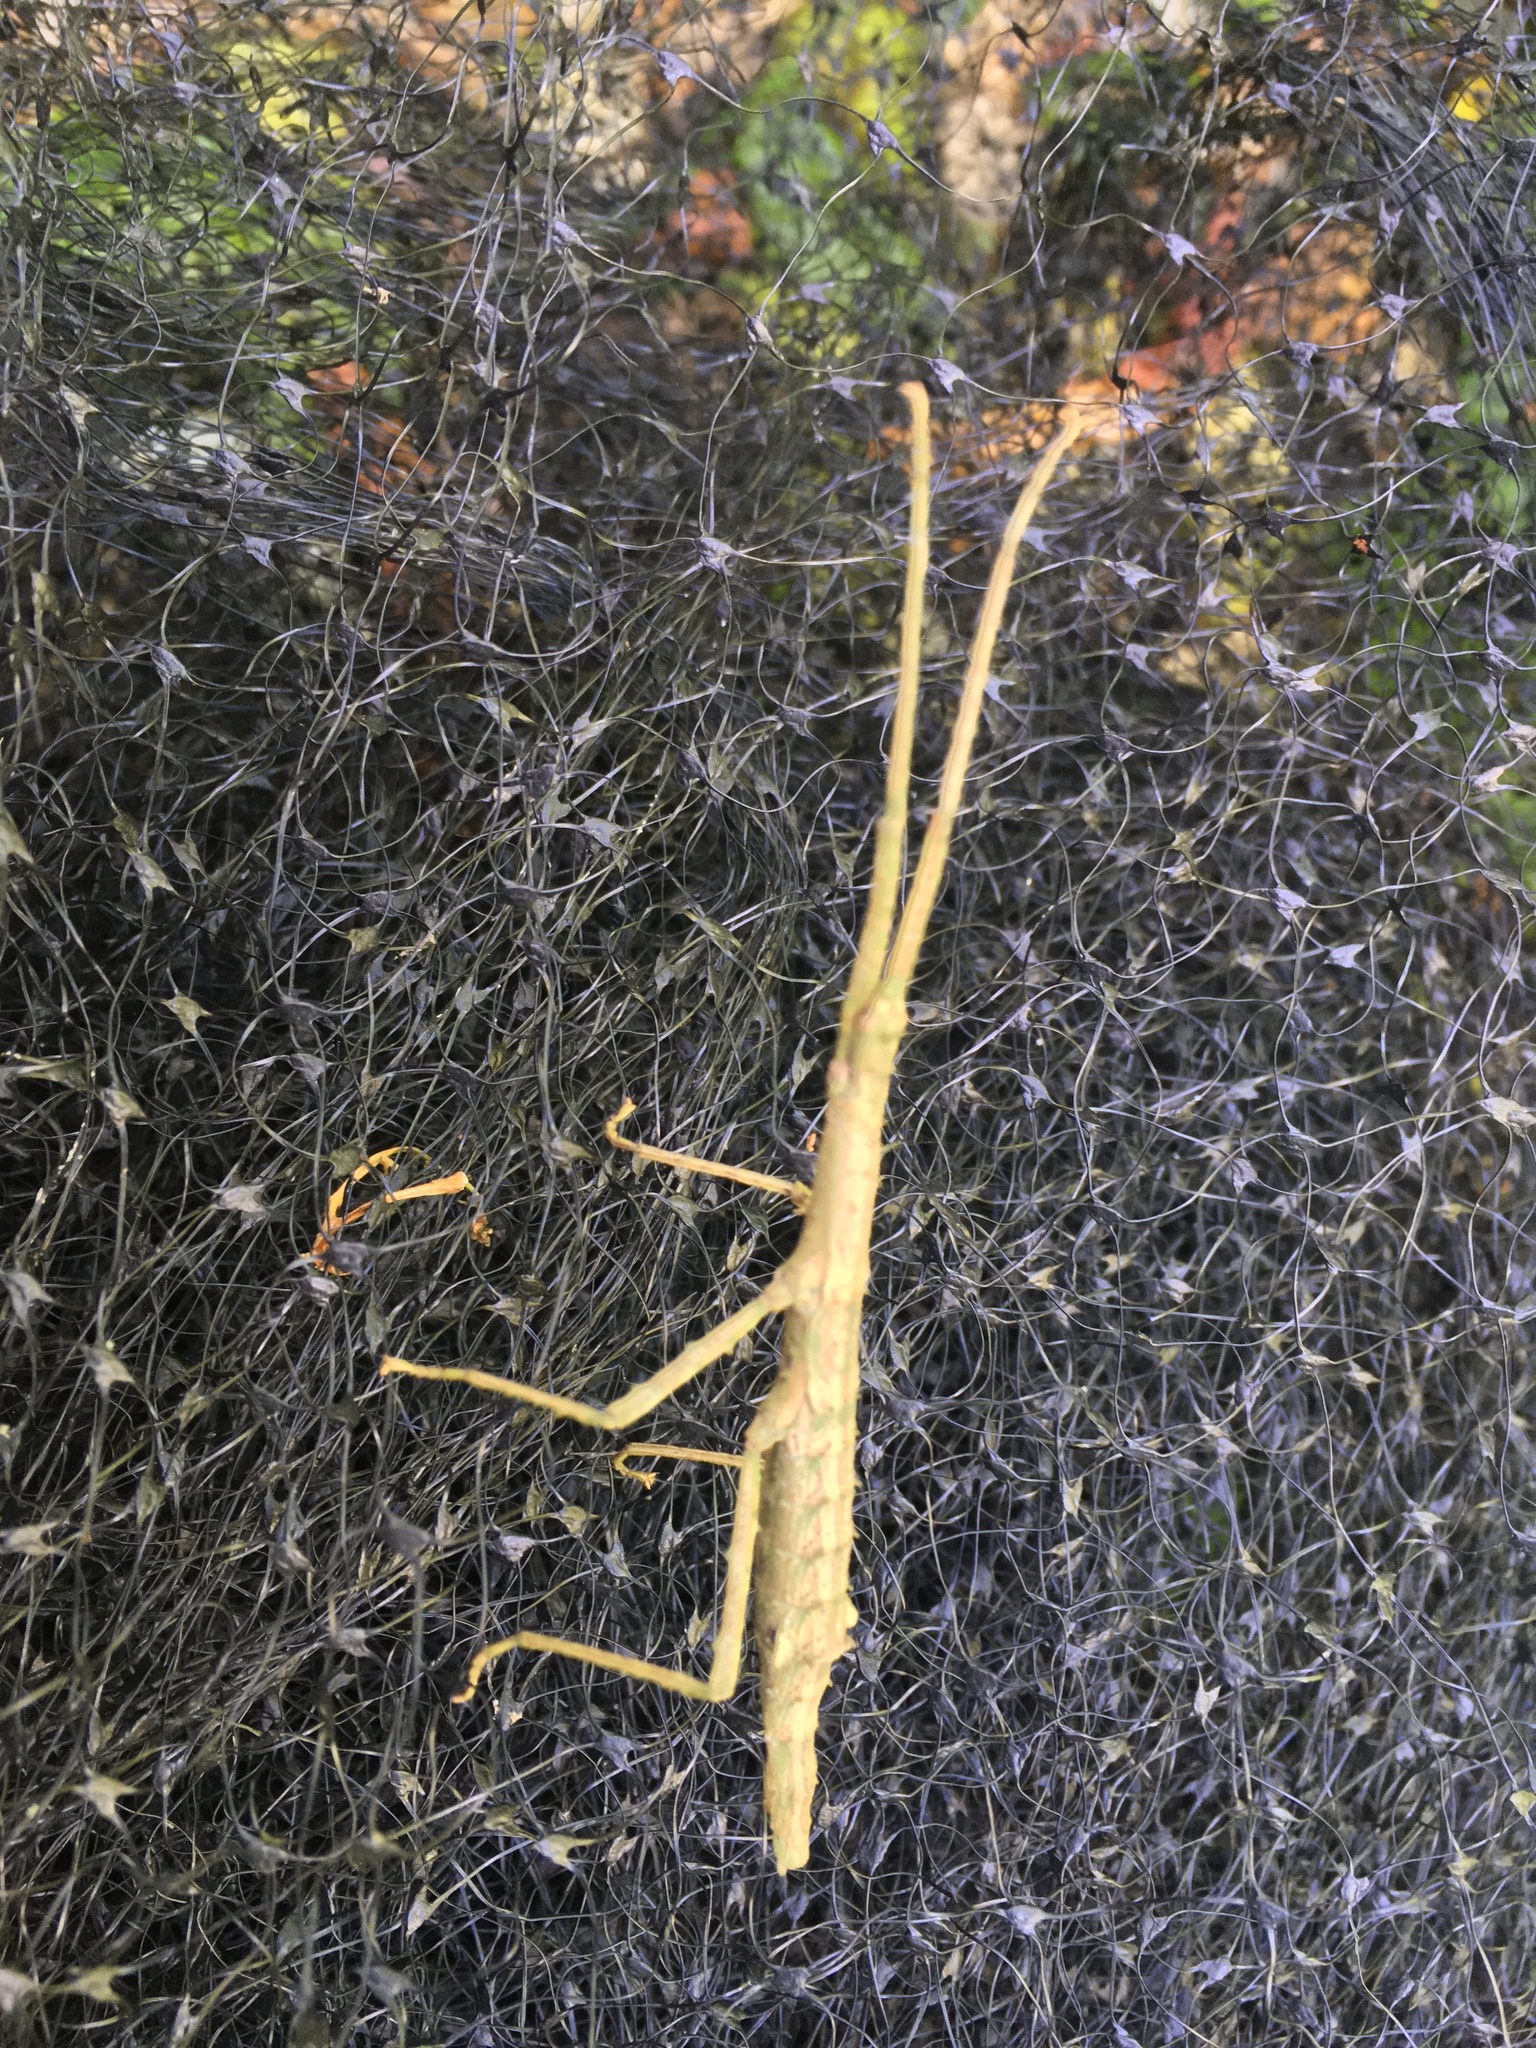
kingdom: Animalia
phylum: Arthropoda
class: Insecta
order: Phasmida
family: Phasmatidae
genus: Niveaphasma
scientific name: Niveaphasma annulatum
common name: Hutton's stick insect
